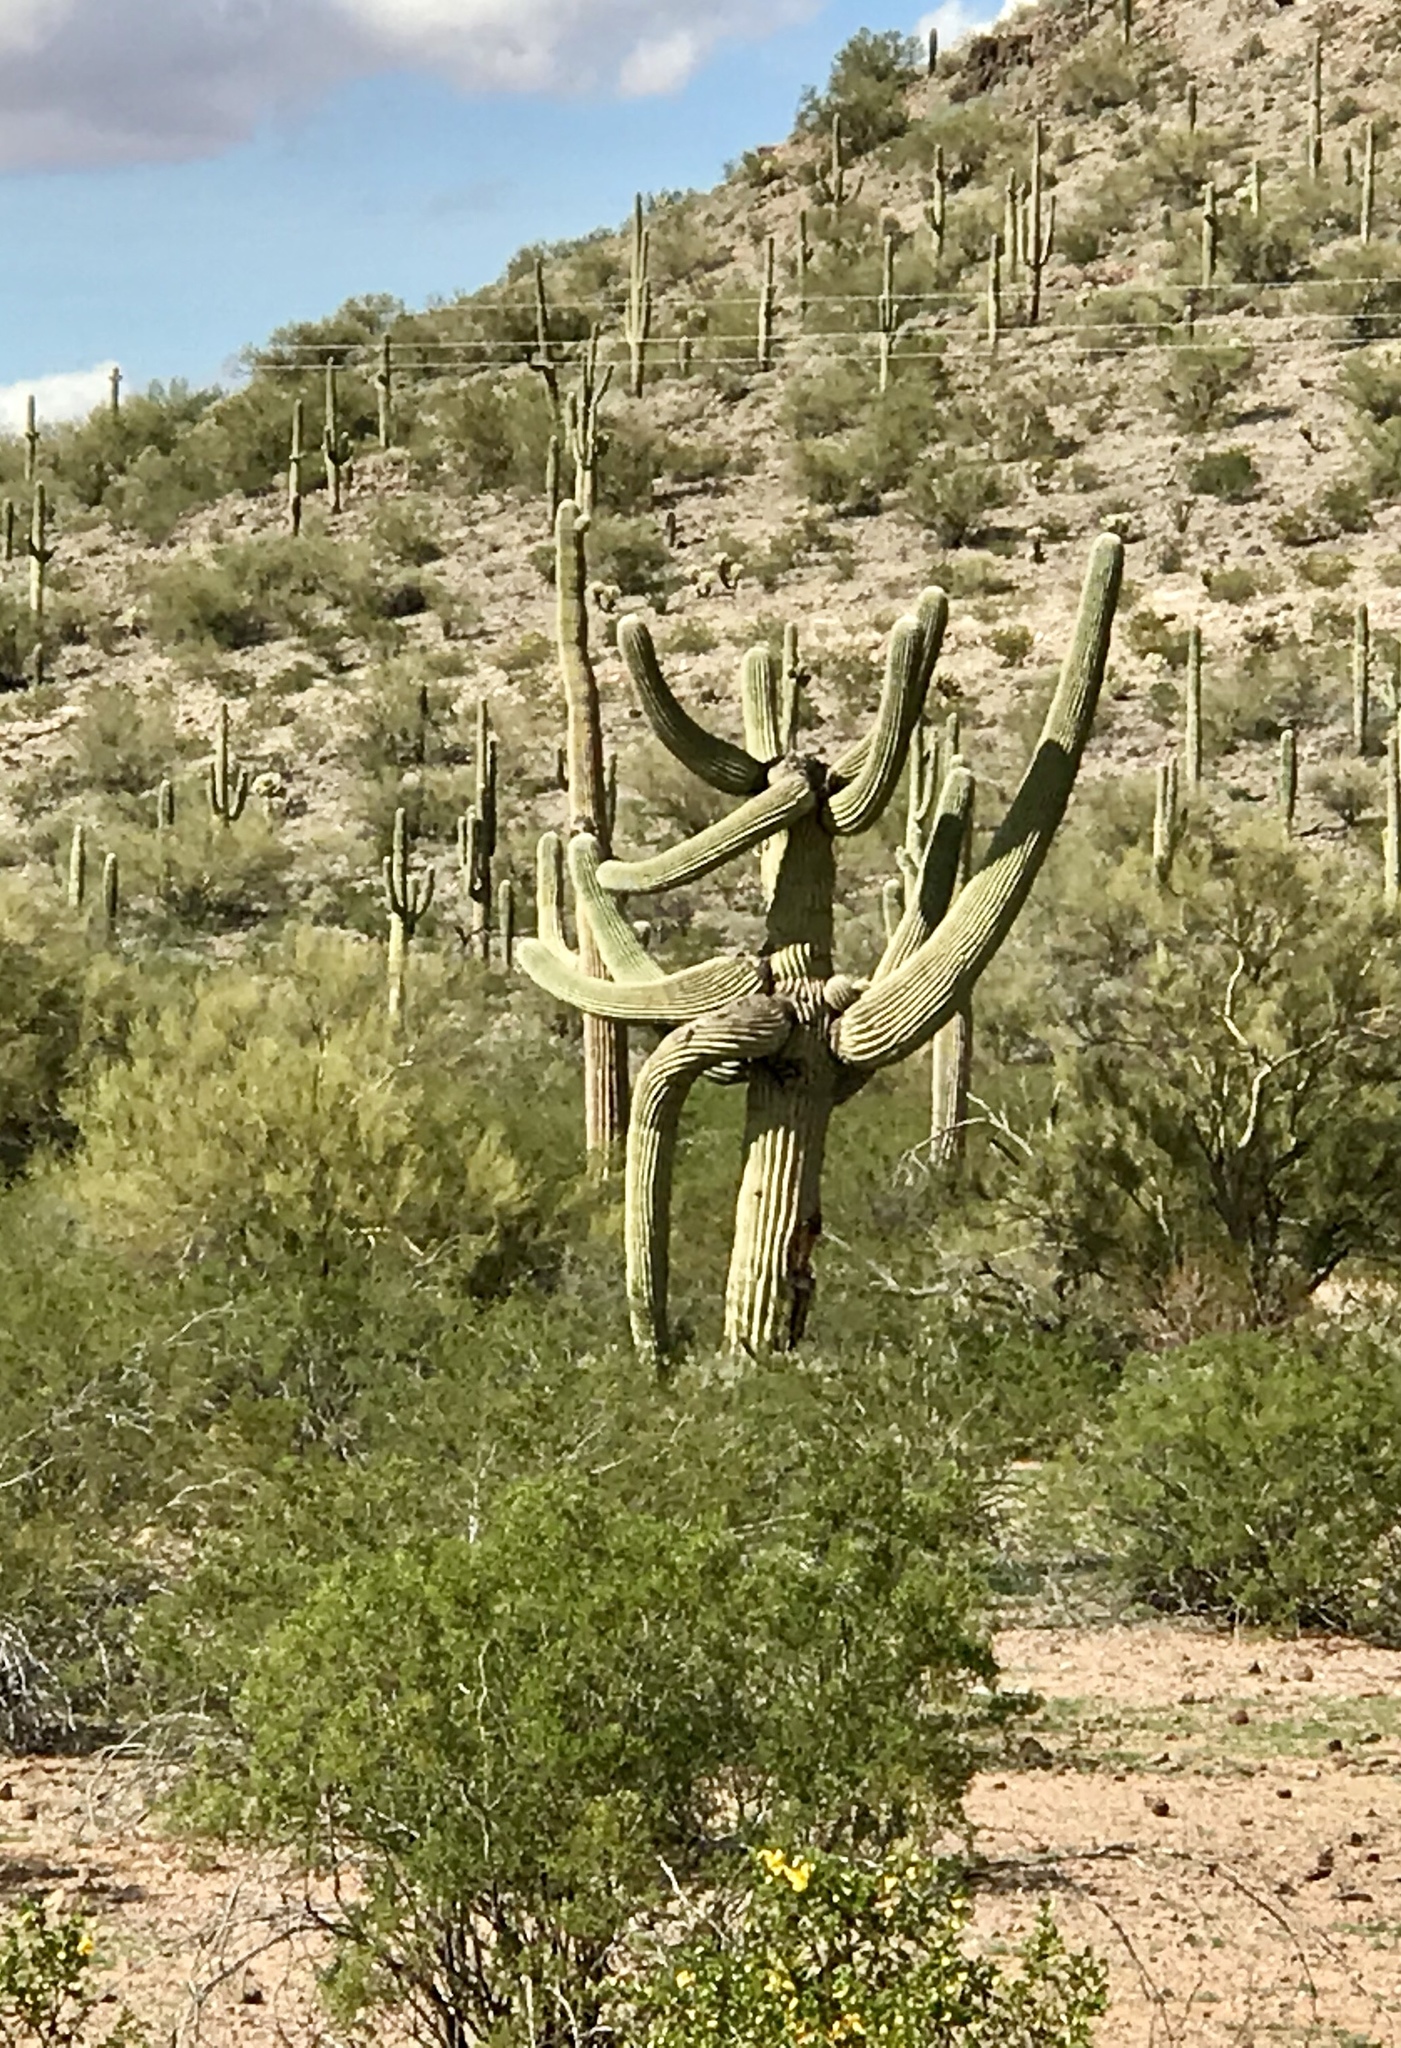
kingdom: Plantae
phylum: Tracheophyta
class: Magnoliopsida
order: Caryophyllales
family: Cactaceae
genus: Carnegiea
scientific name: Carnegiea gigantea
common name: Saguaro
